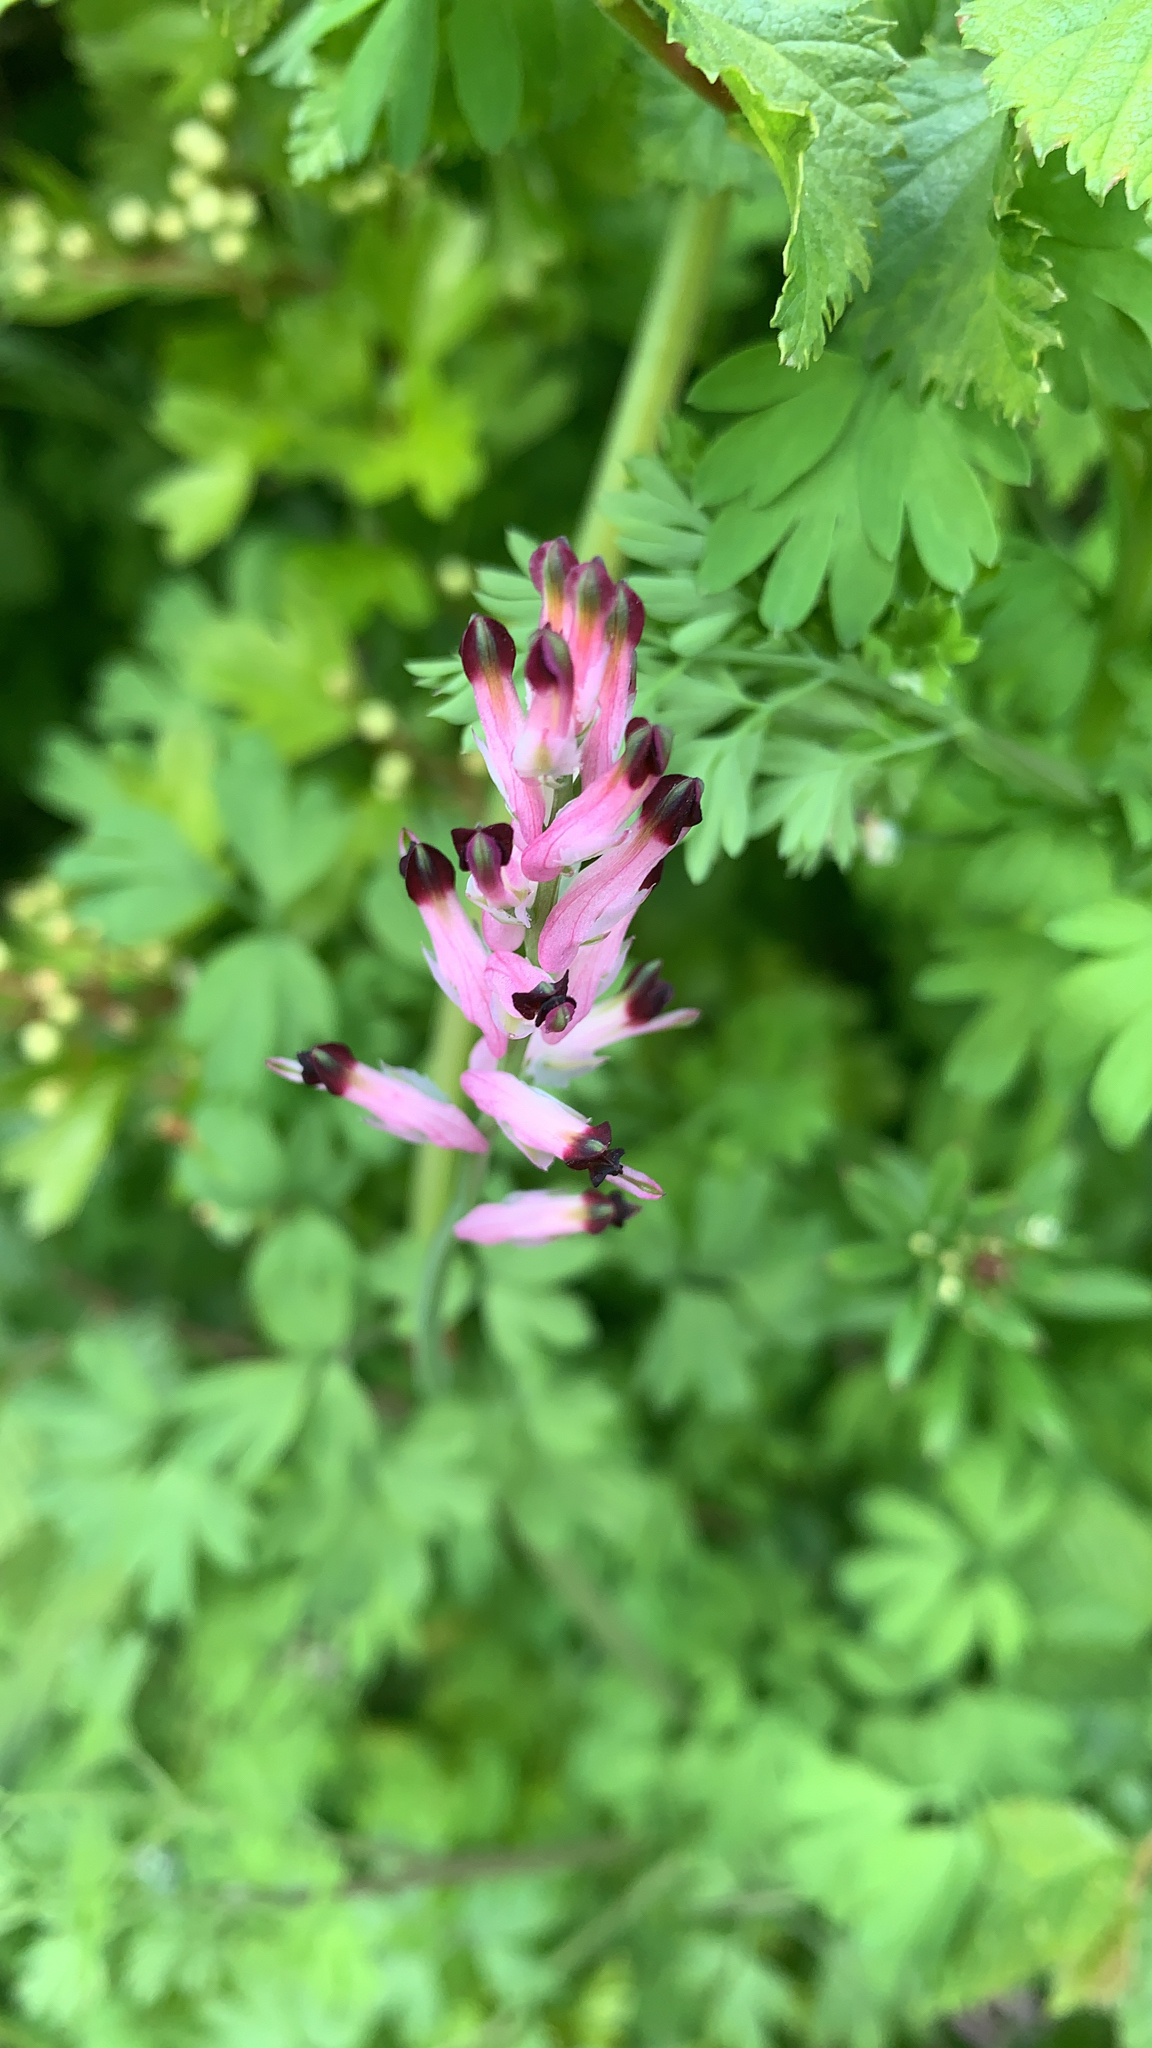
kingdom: Plantae
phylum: Tracheophyta
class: Magnoliopsida
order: Ranunculales
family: Papaveraceae
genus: Fumaria
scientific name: Fumaria muralis
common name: Common ramping-fumitory
